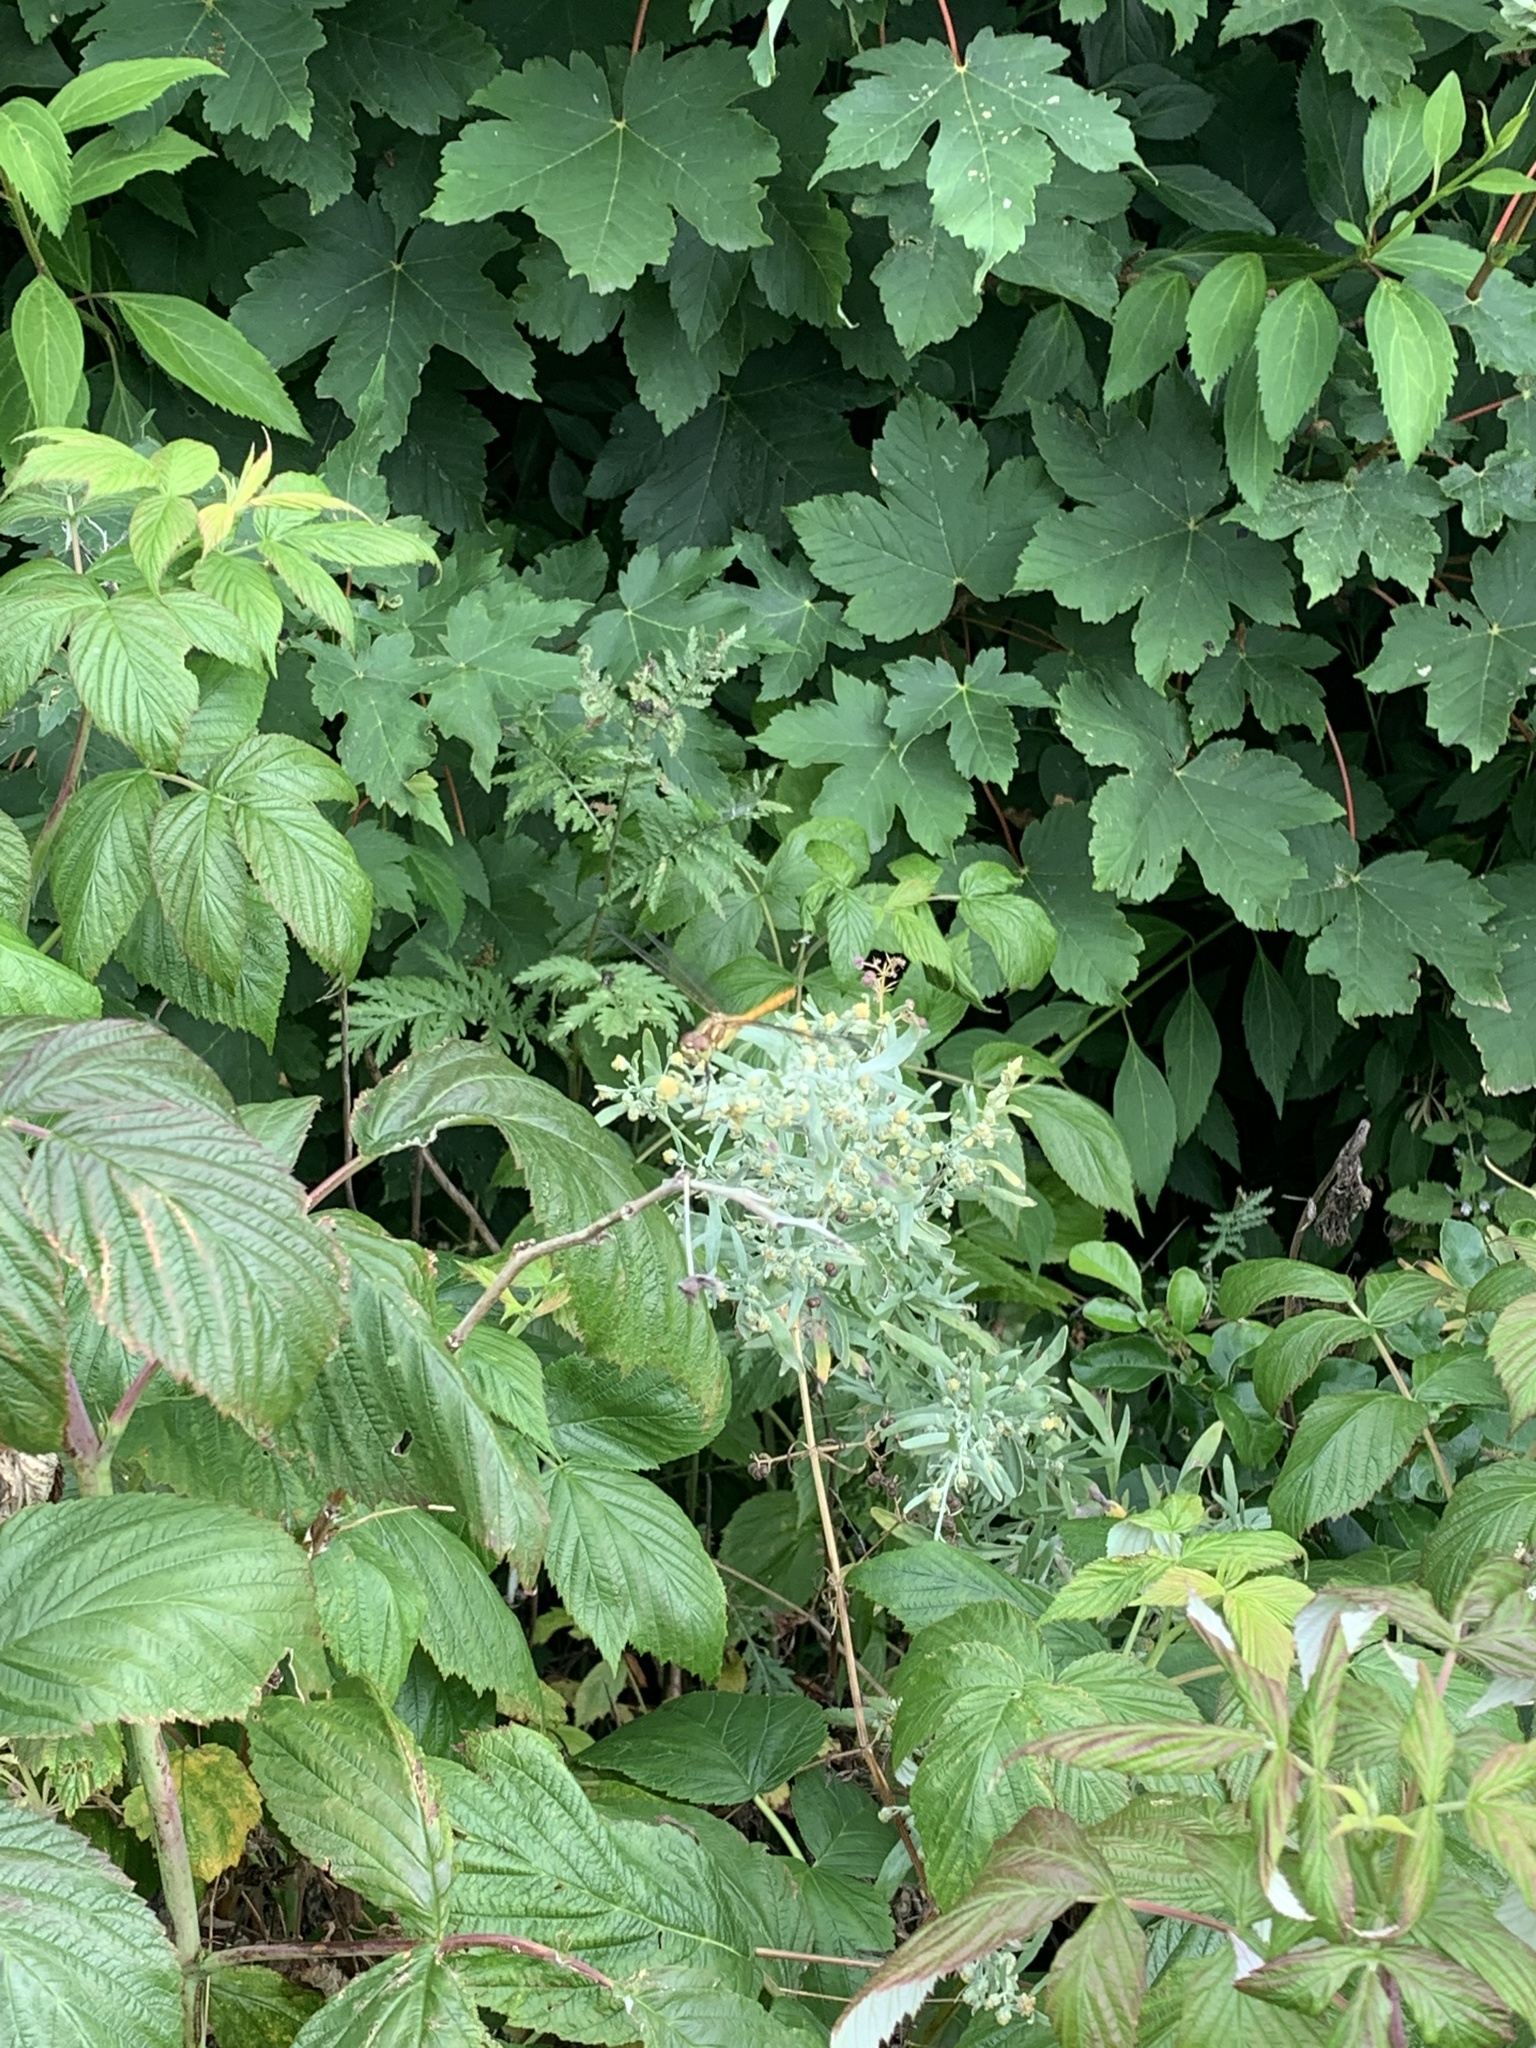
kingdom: Animalia
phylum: Arthropoda
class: Insecta
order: Odonata
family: Libellulidae
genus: Sympetrum
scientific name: Sympetrum striolatum
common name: Common darter
